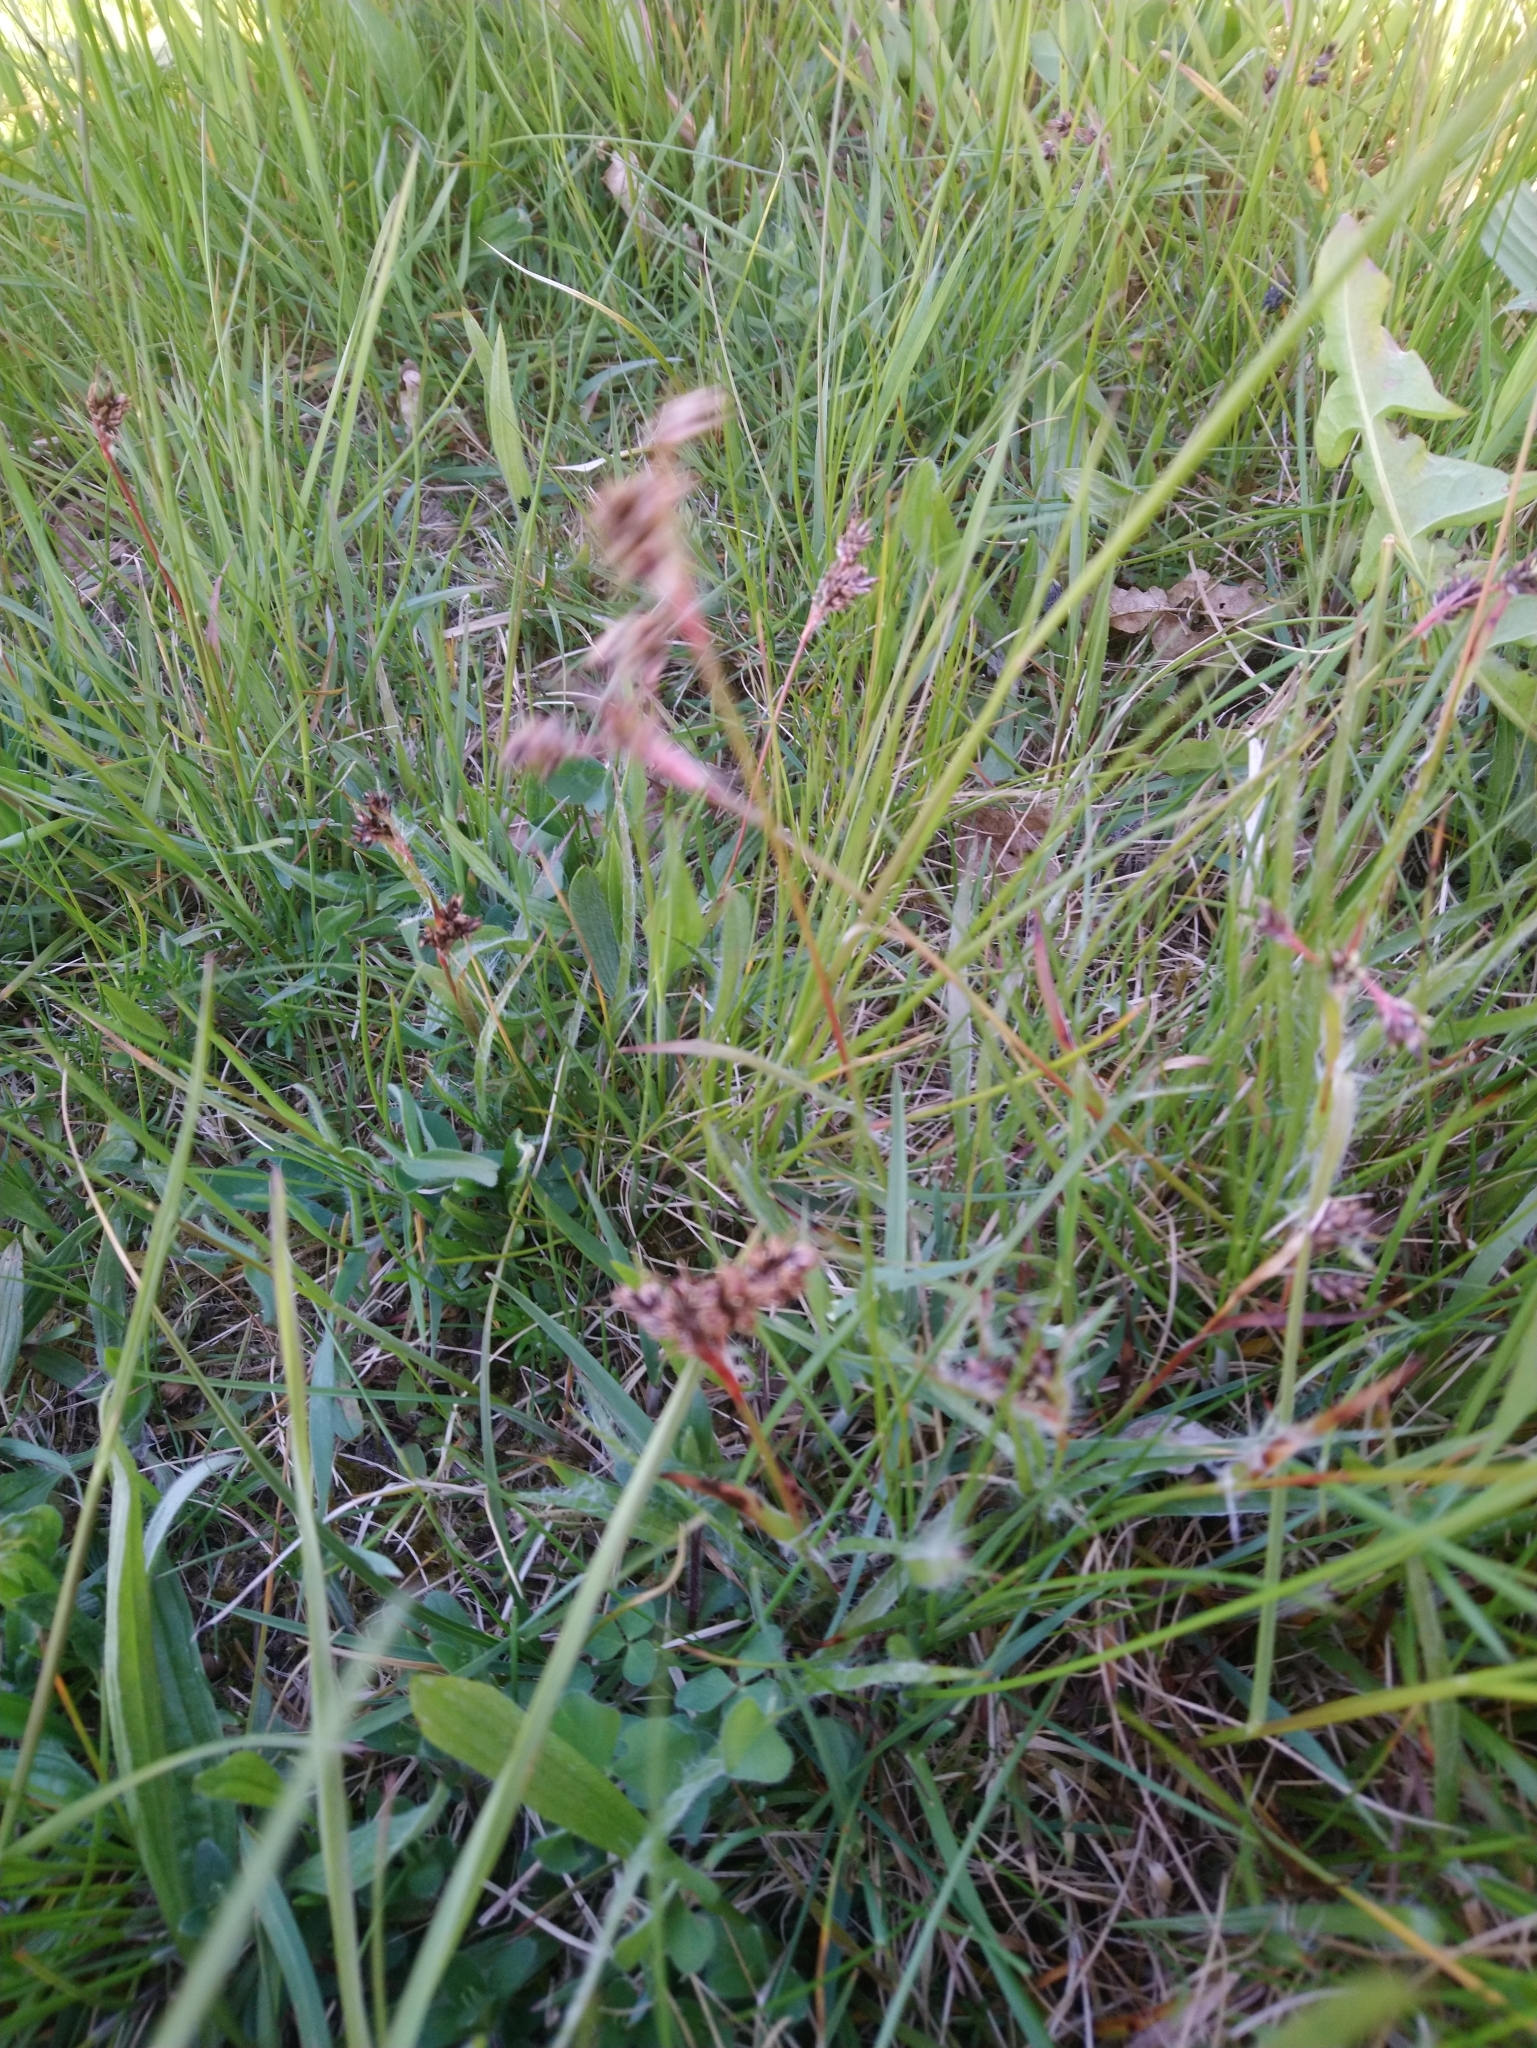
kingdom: Plantae
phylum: Tracheophyta
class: Liliopsida
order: Poales
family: Juncaceae
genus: Luzula
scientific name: Luzula campestris
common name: Field wood-rush
